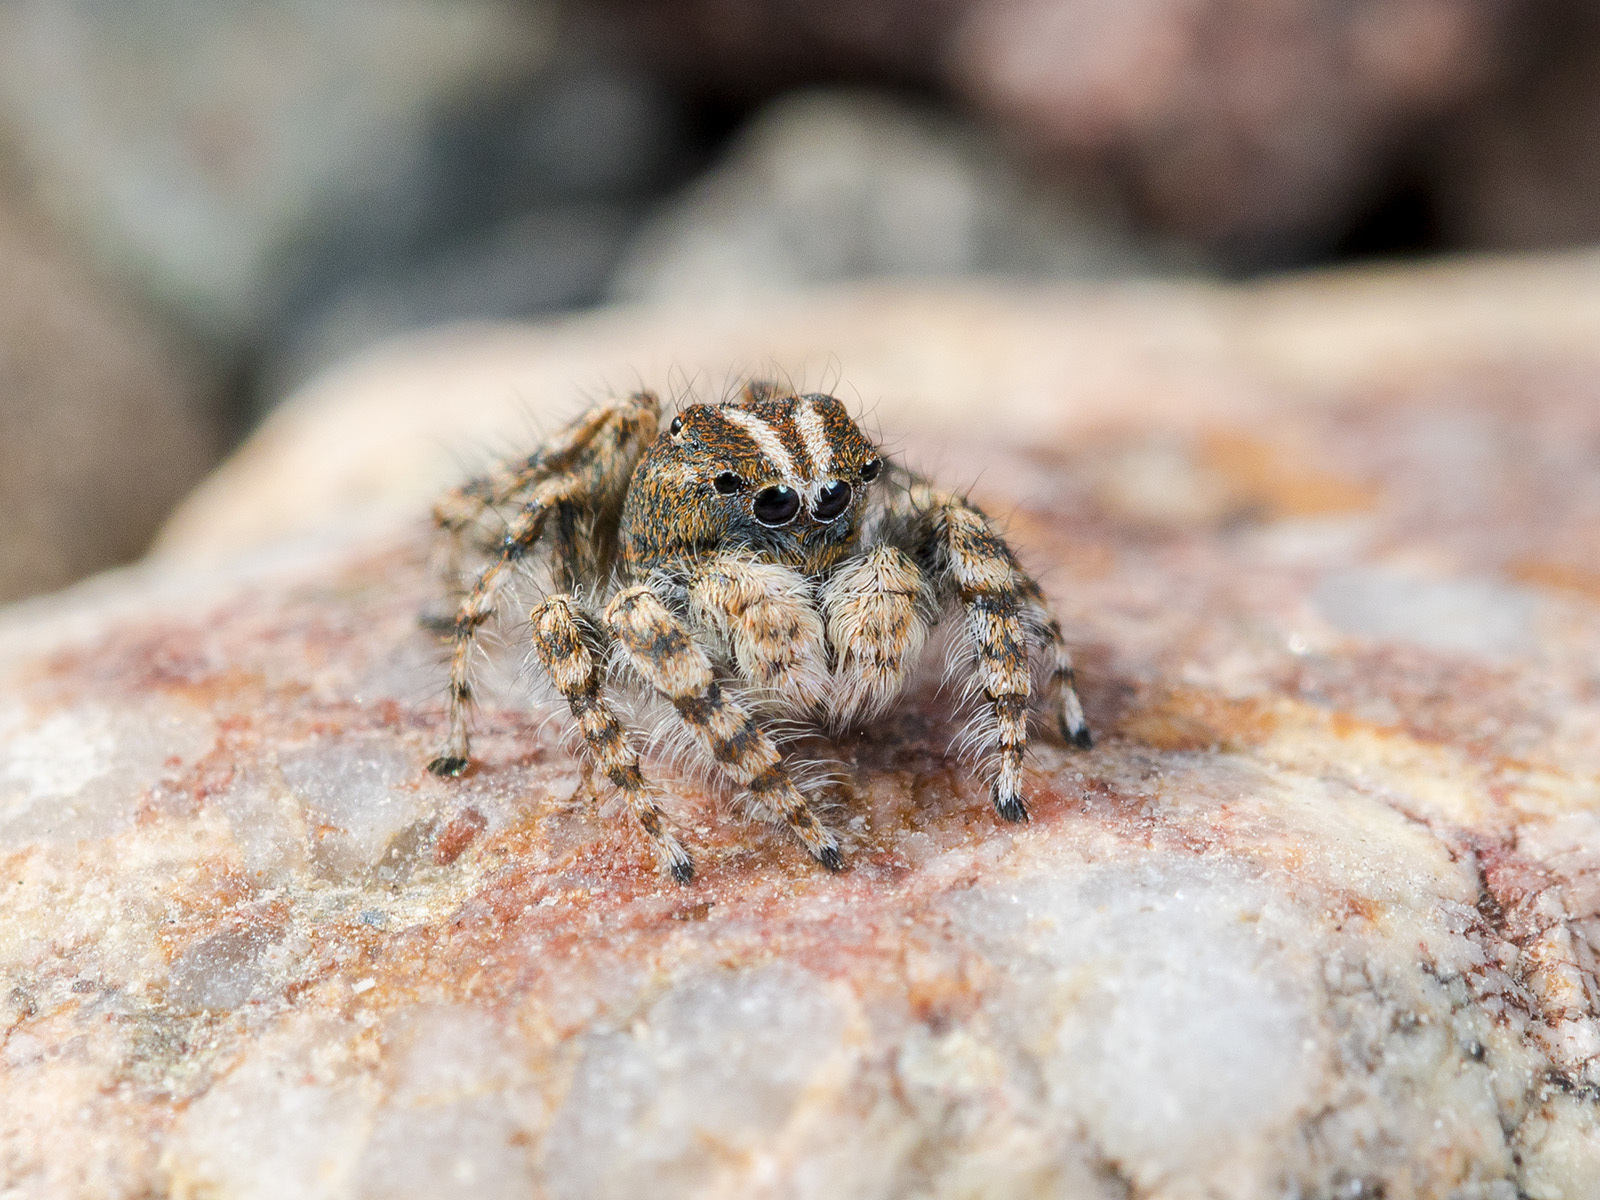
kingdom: Animalia
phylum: Arthropoda
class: Arachnida
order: Araneae
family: Salticidae
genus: Yllenus
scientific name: Yllenus zyuzini
